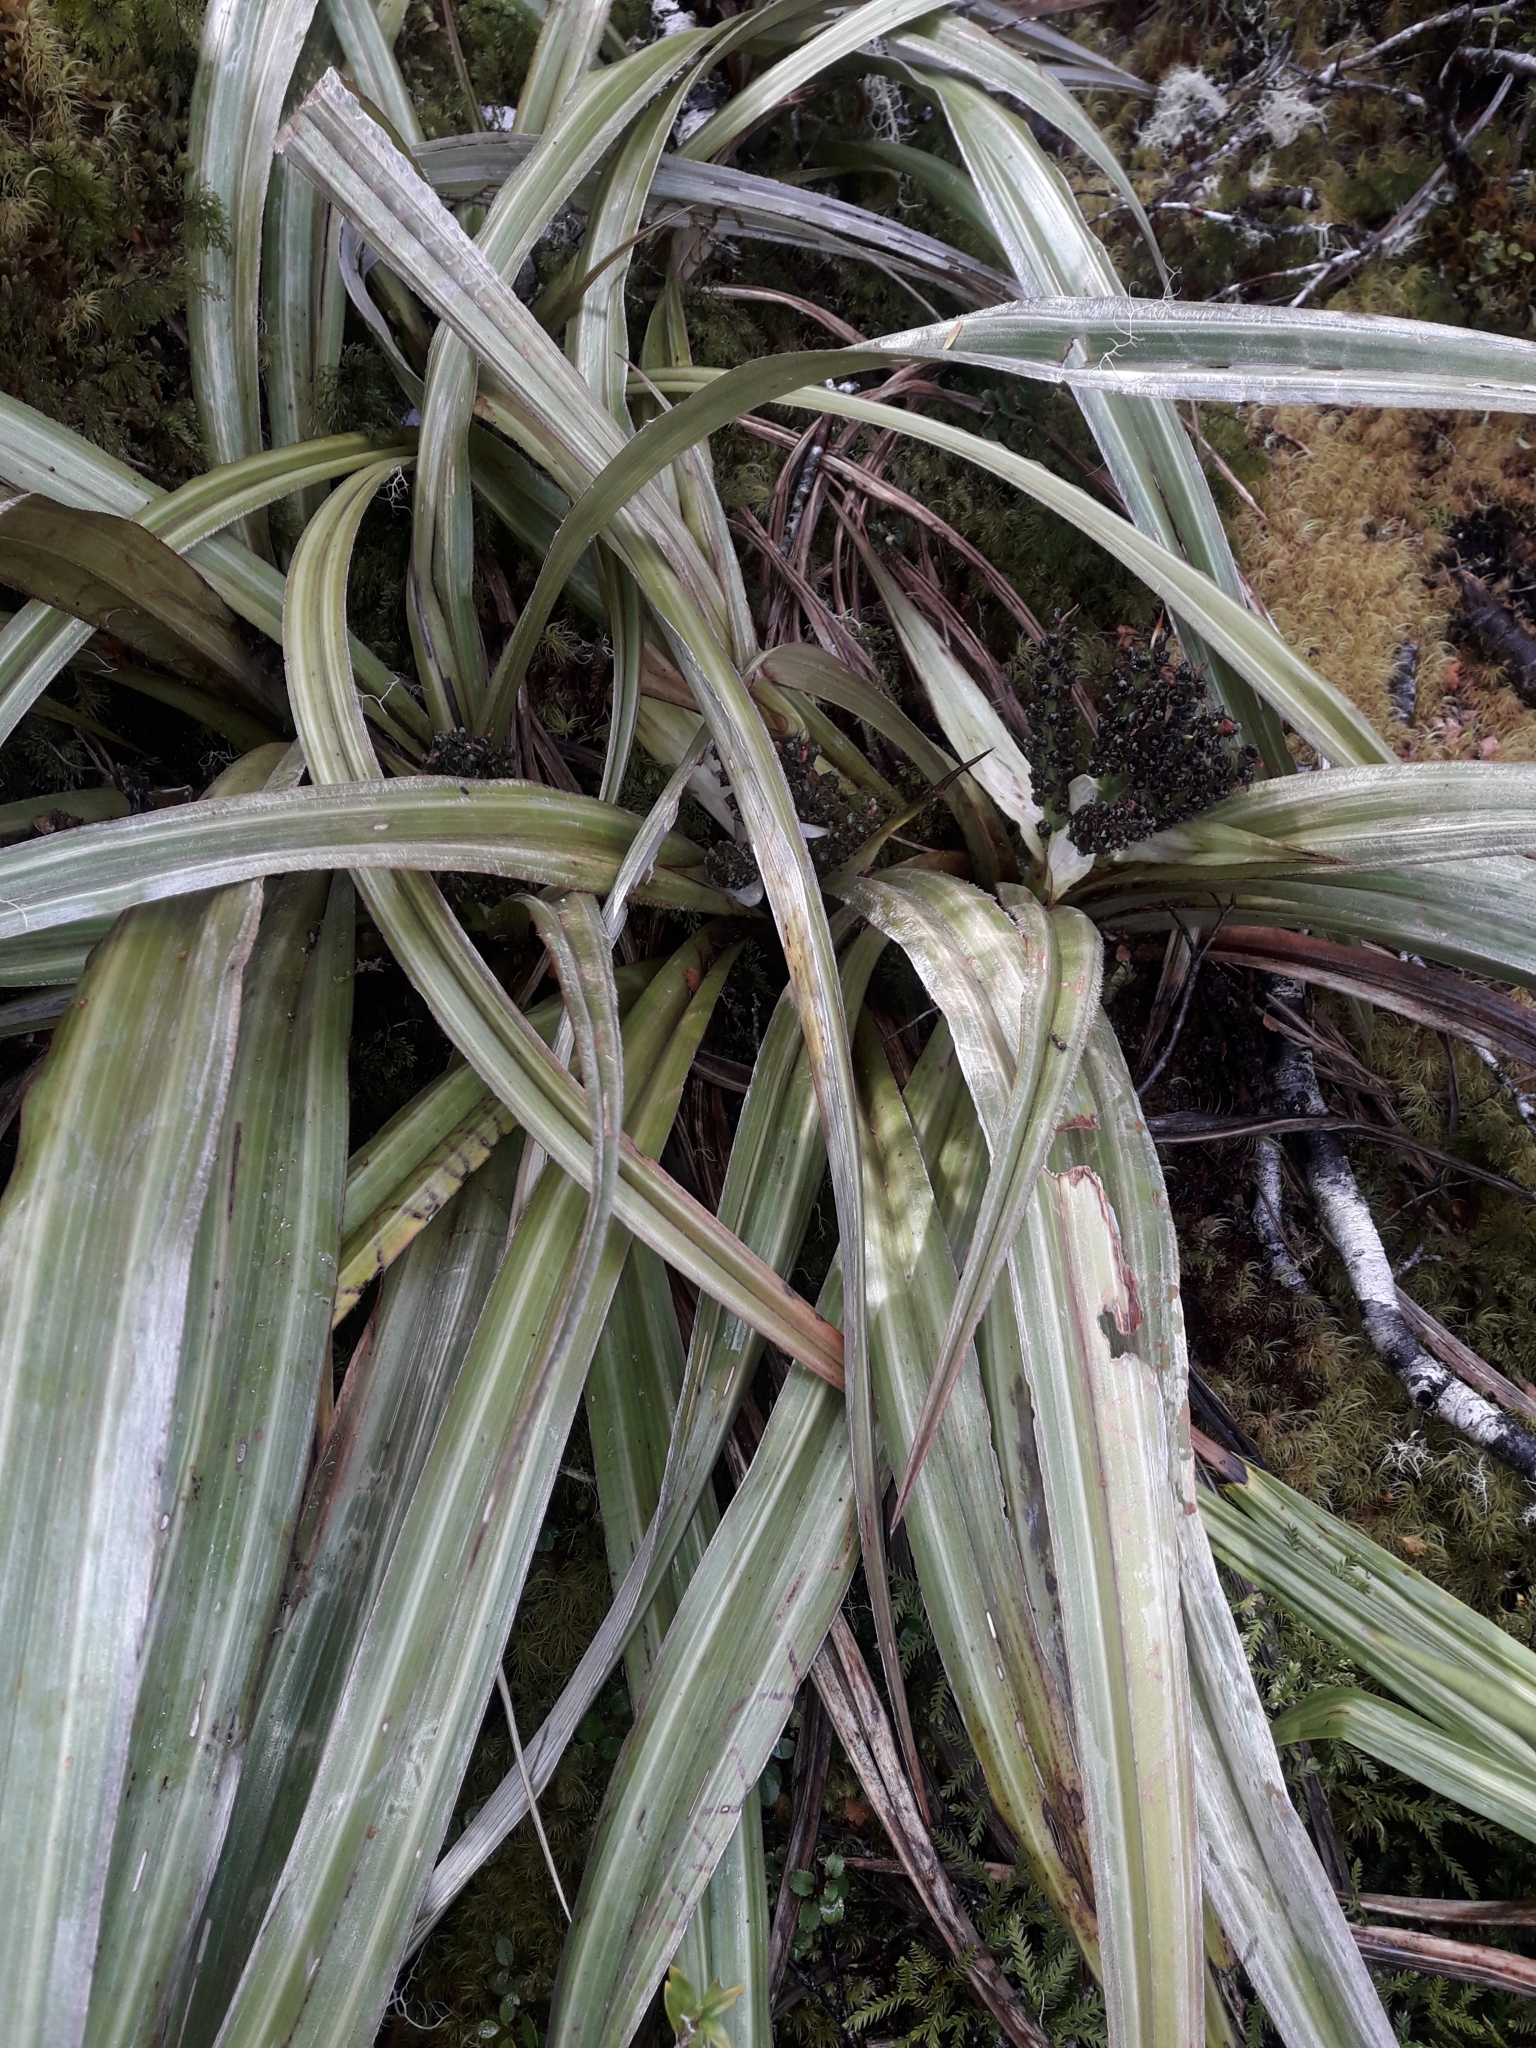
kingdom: Plantae
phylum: Tracheophyta
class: Liliopsida
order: Asparagales
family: Asteliaceae
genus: Astelia
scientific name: Astelia nervosa
